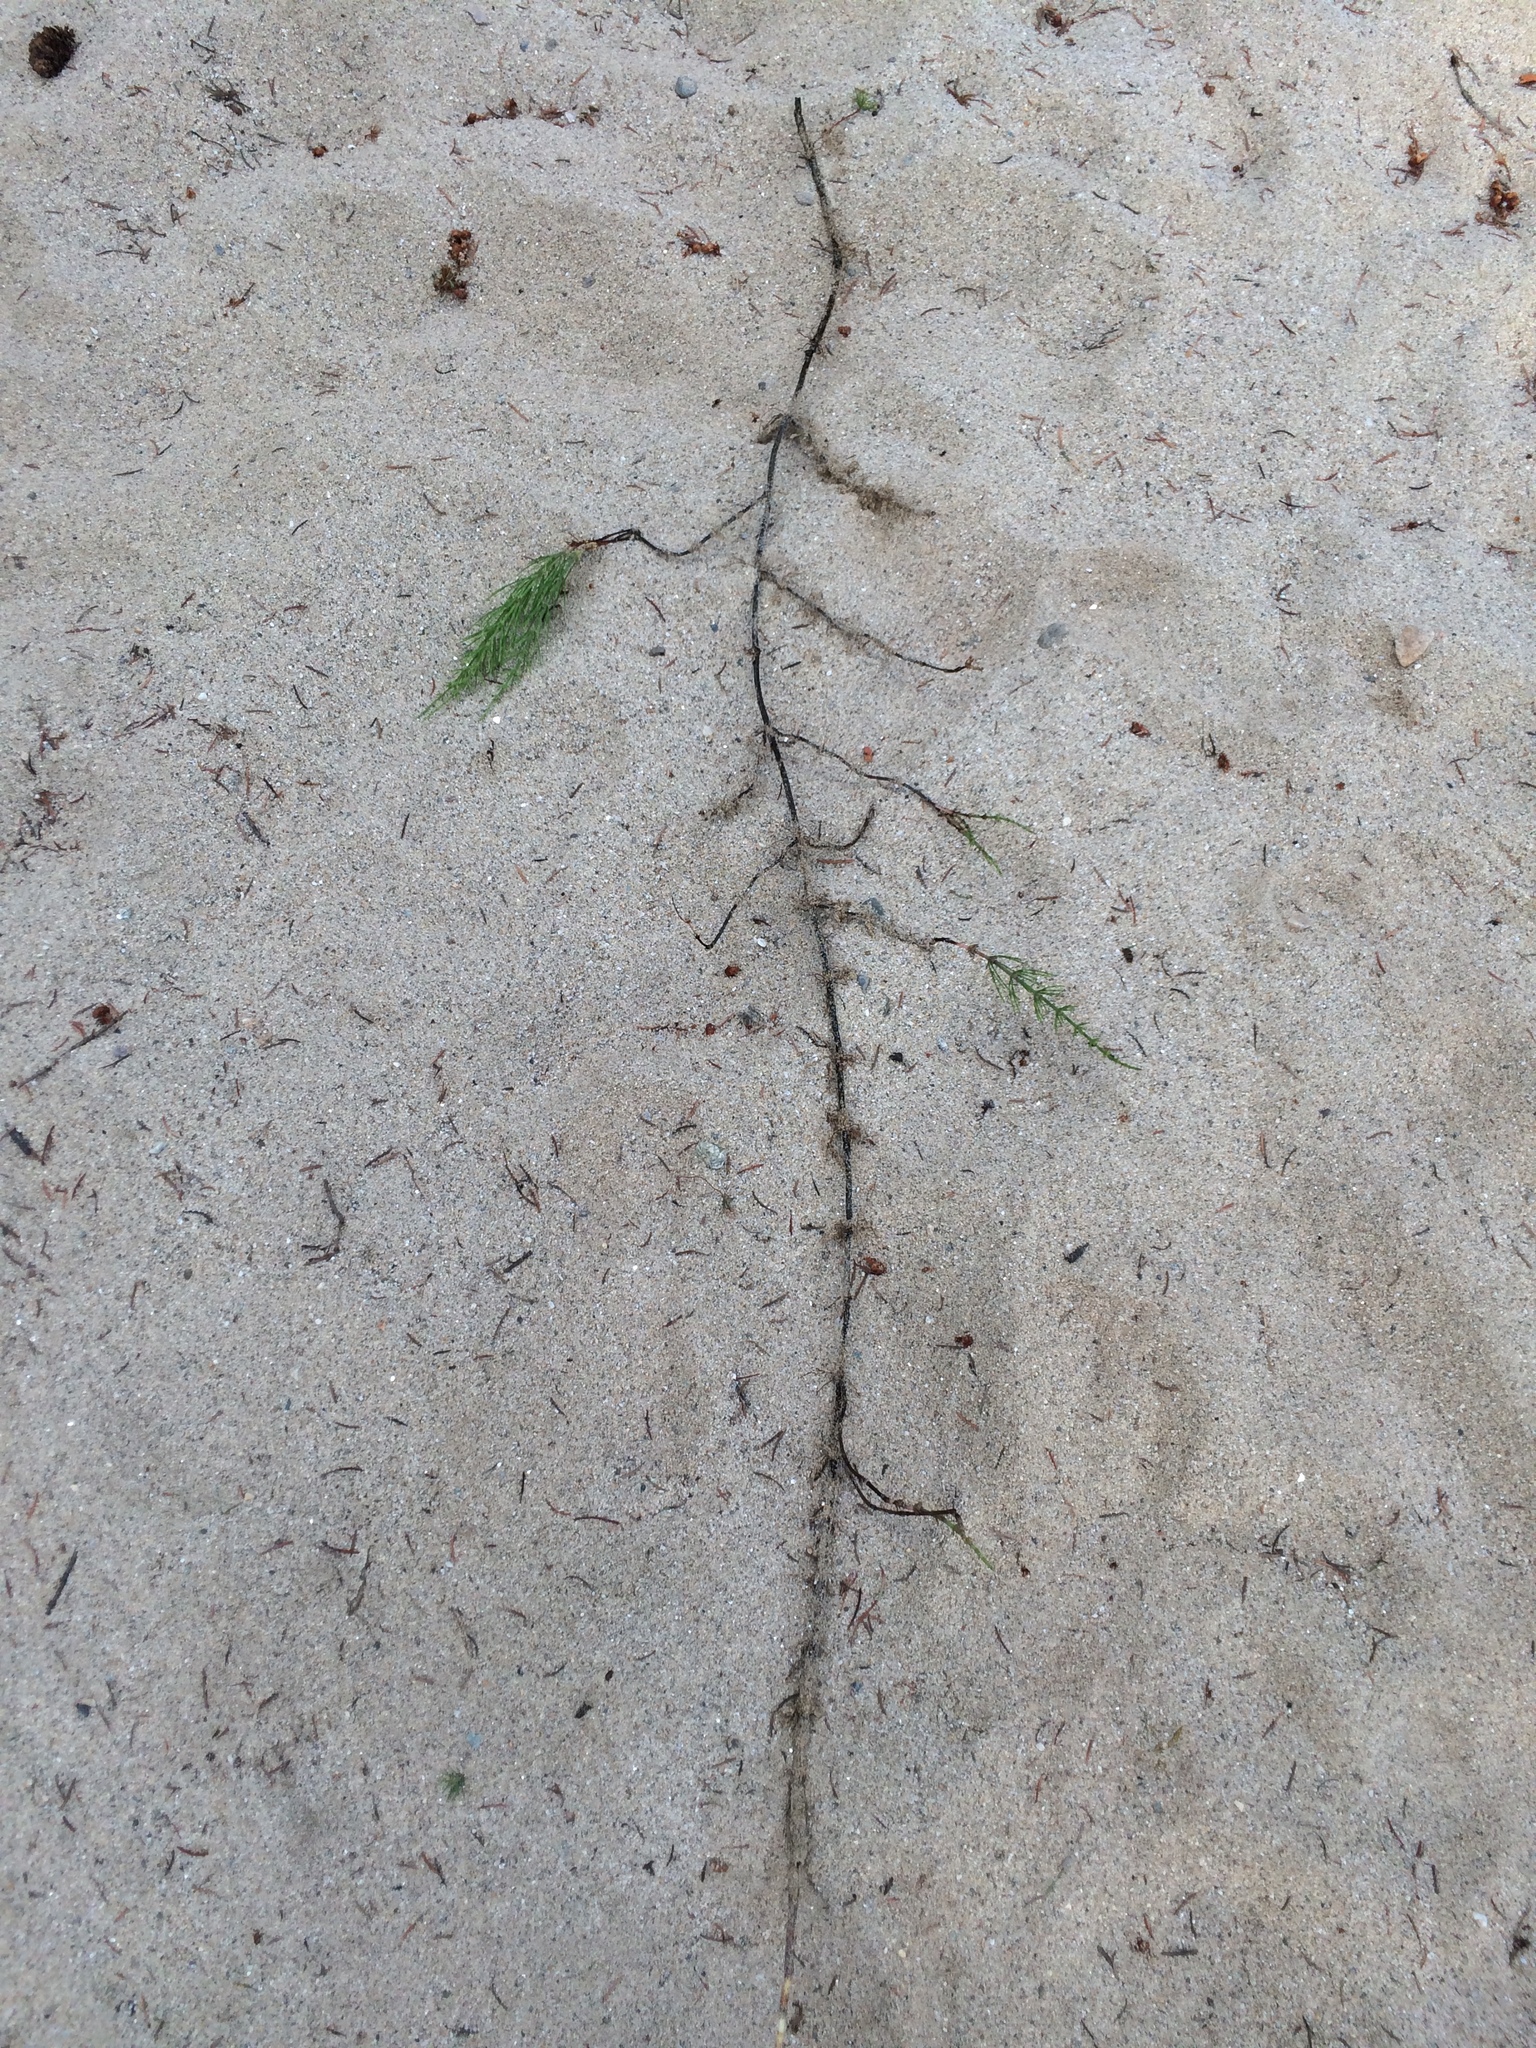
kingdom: Plantae
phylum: Tracheophyta
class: Polypodiopsida
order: Equisetales
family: Equisetaceae
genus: Equisetum
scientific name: Equisetum arvense
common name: Field horsetail
